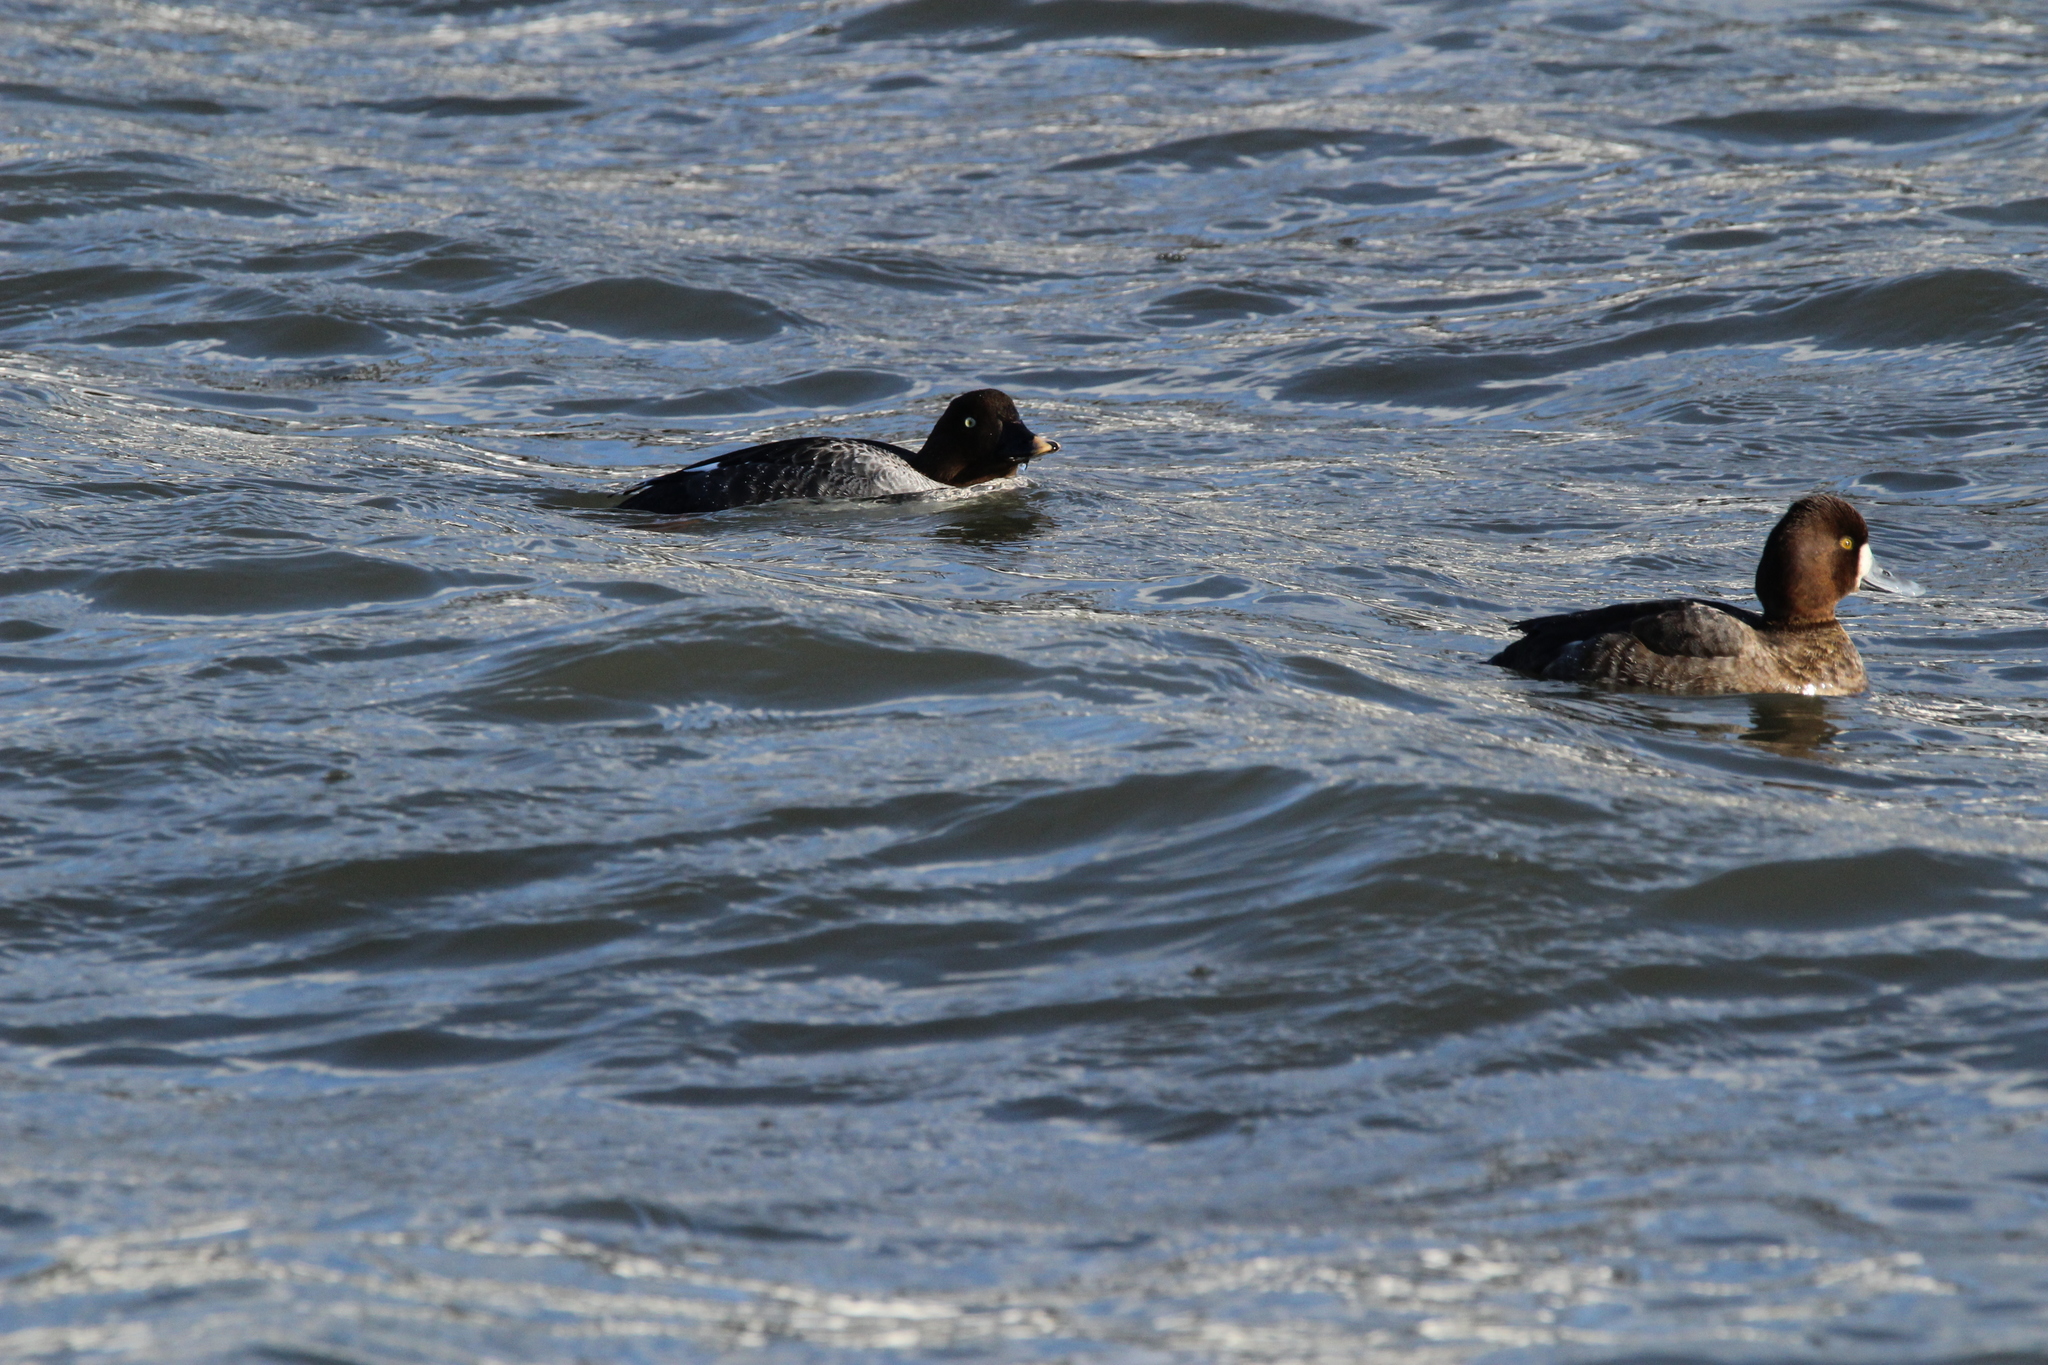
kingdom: Animalia
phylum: Chordata
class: Aves
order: Anseriformes
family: Anatidae
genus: Bucephala
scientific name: Bucephala clangula
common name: Common goldeneye
